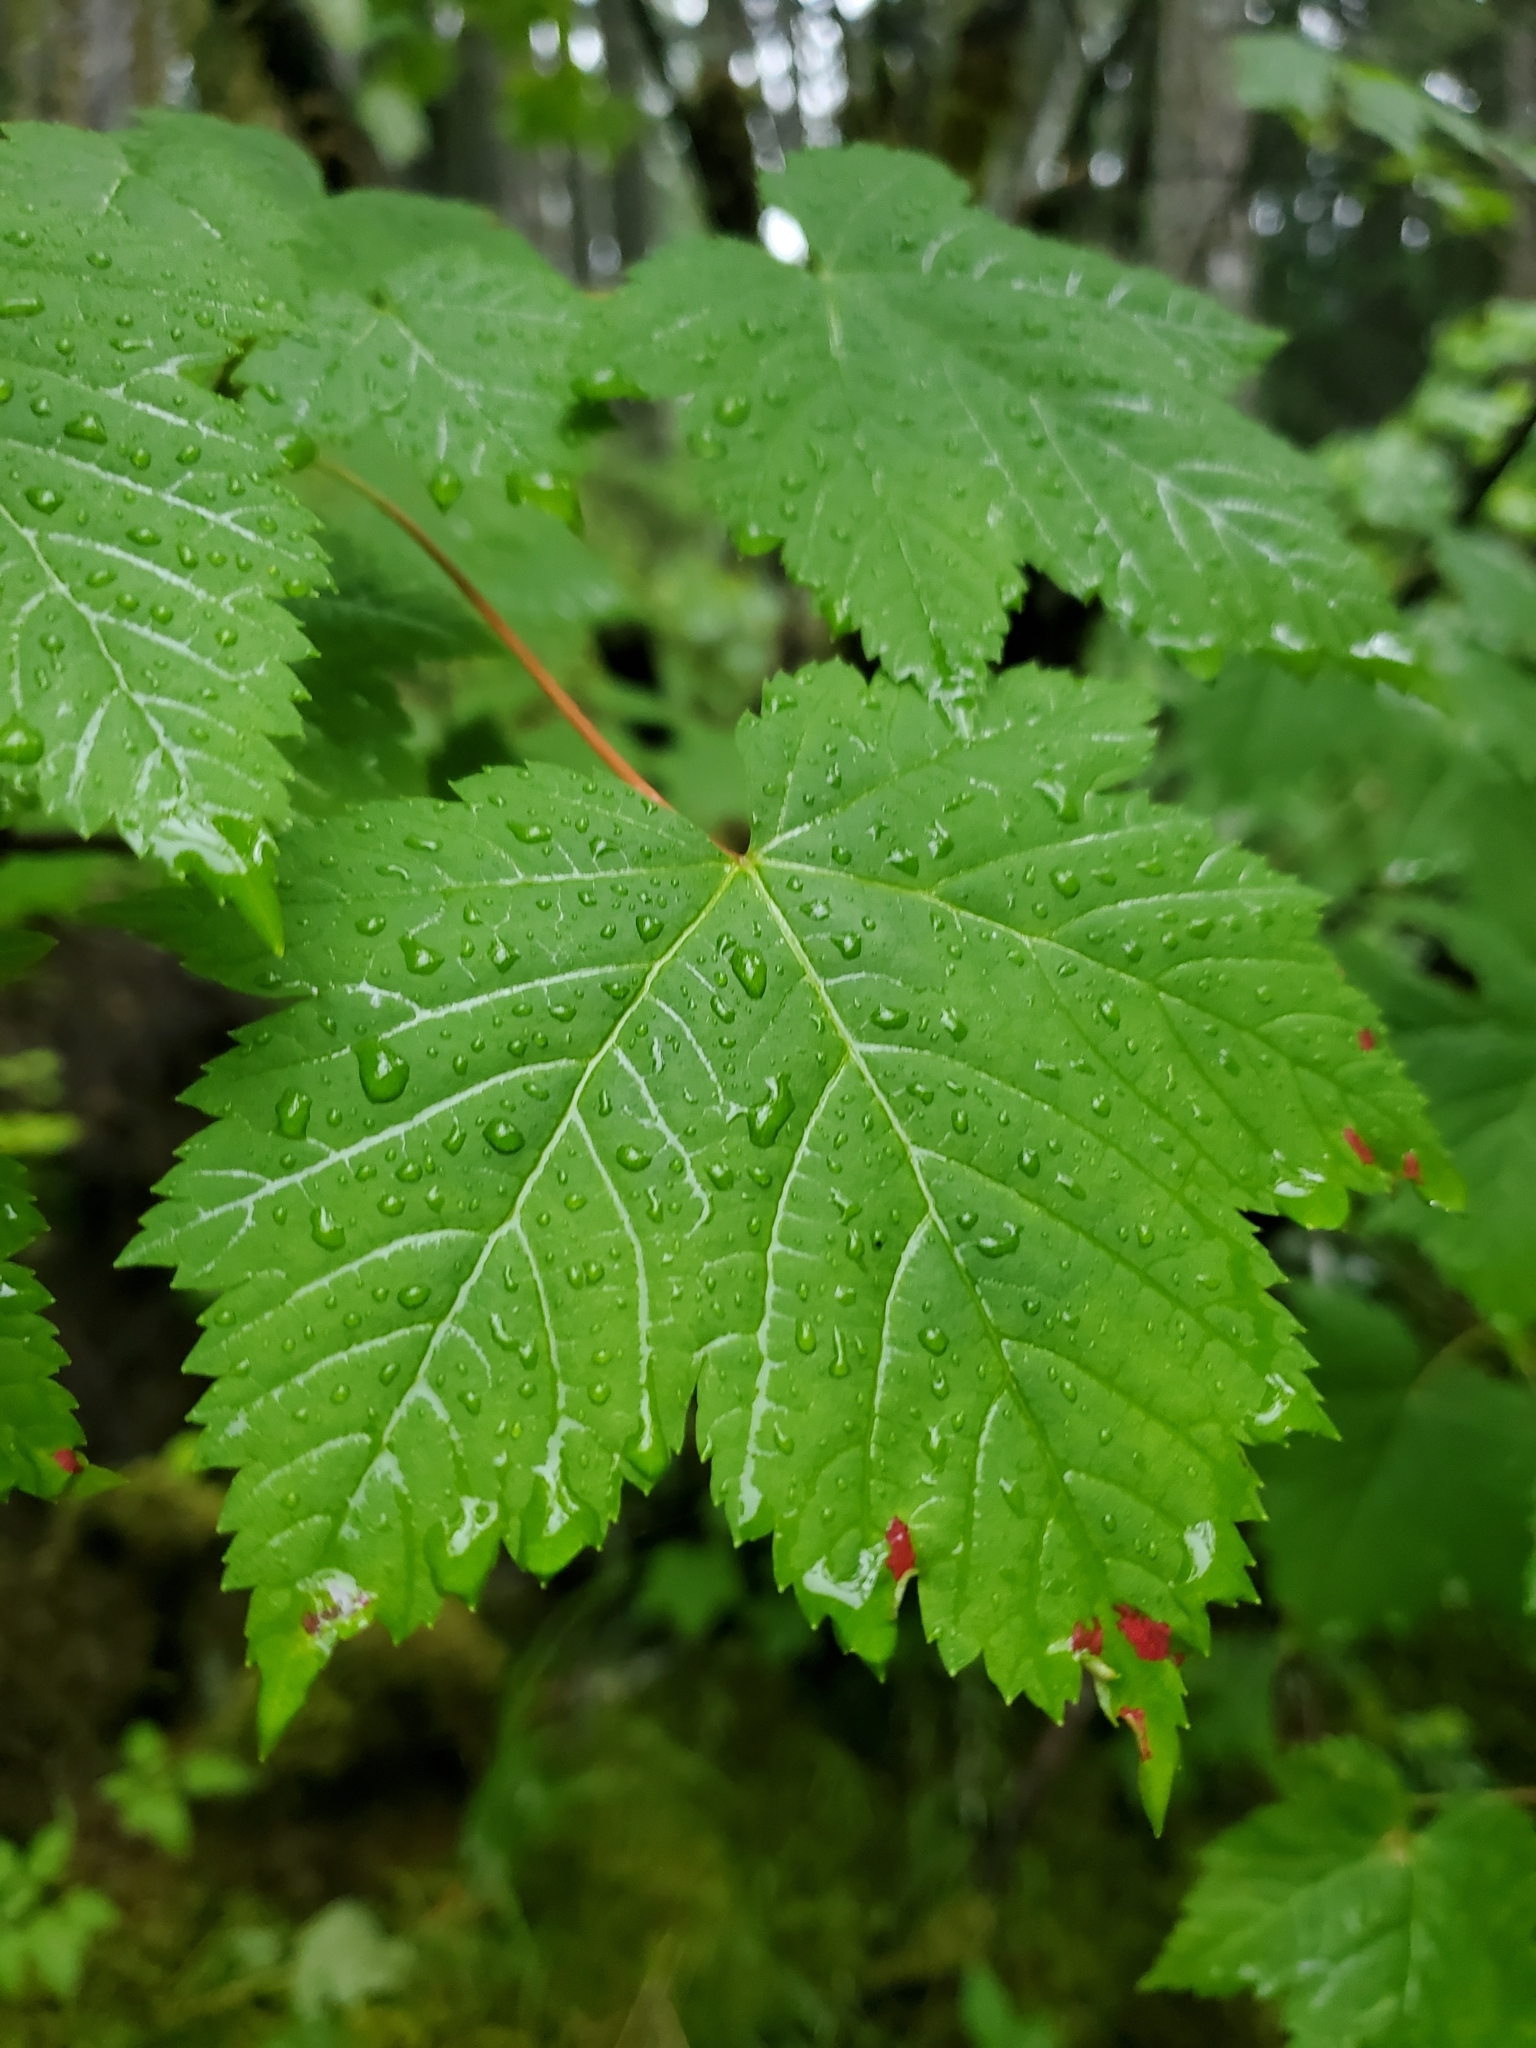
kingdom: Plantae
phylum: Tracheophyta
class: Magnoliopsida
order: Sapindales
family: Sapindaceae
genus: Acer
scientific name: Acer glabrum
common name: Rocky mountain maple
